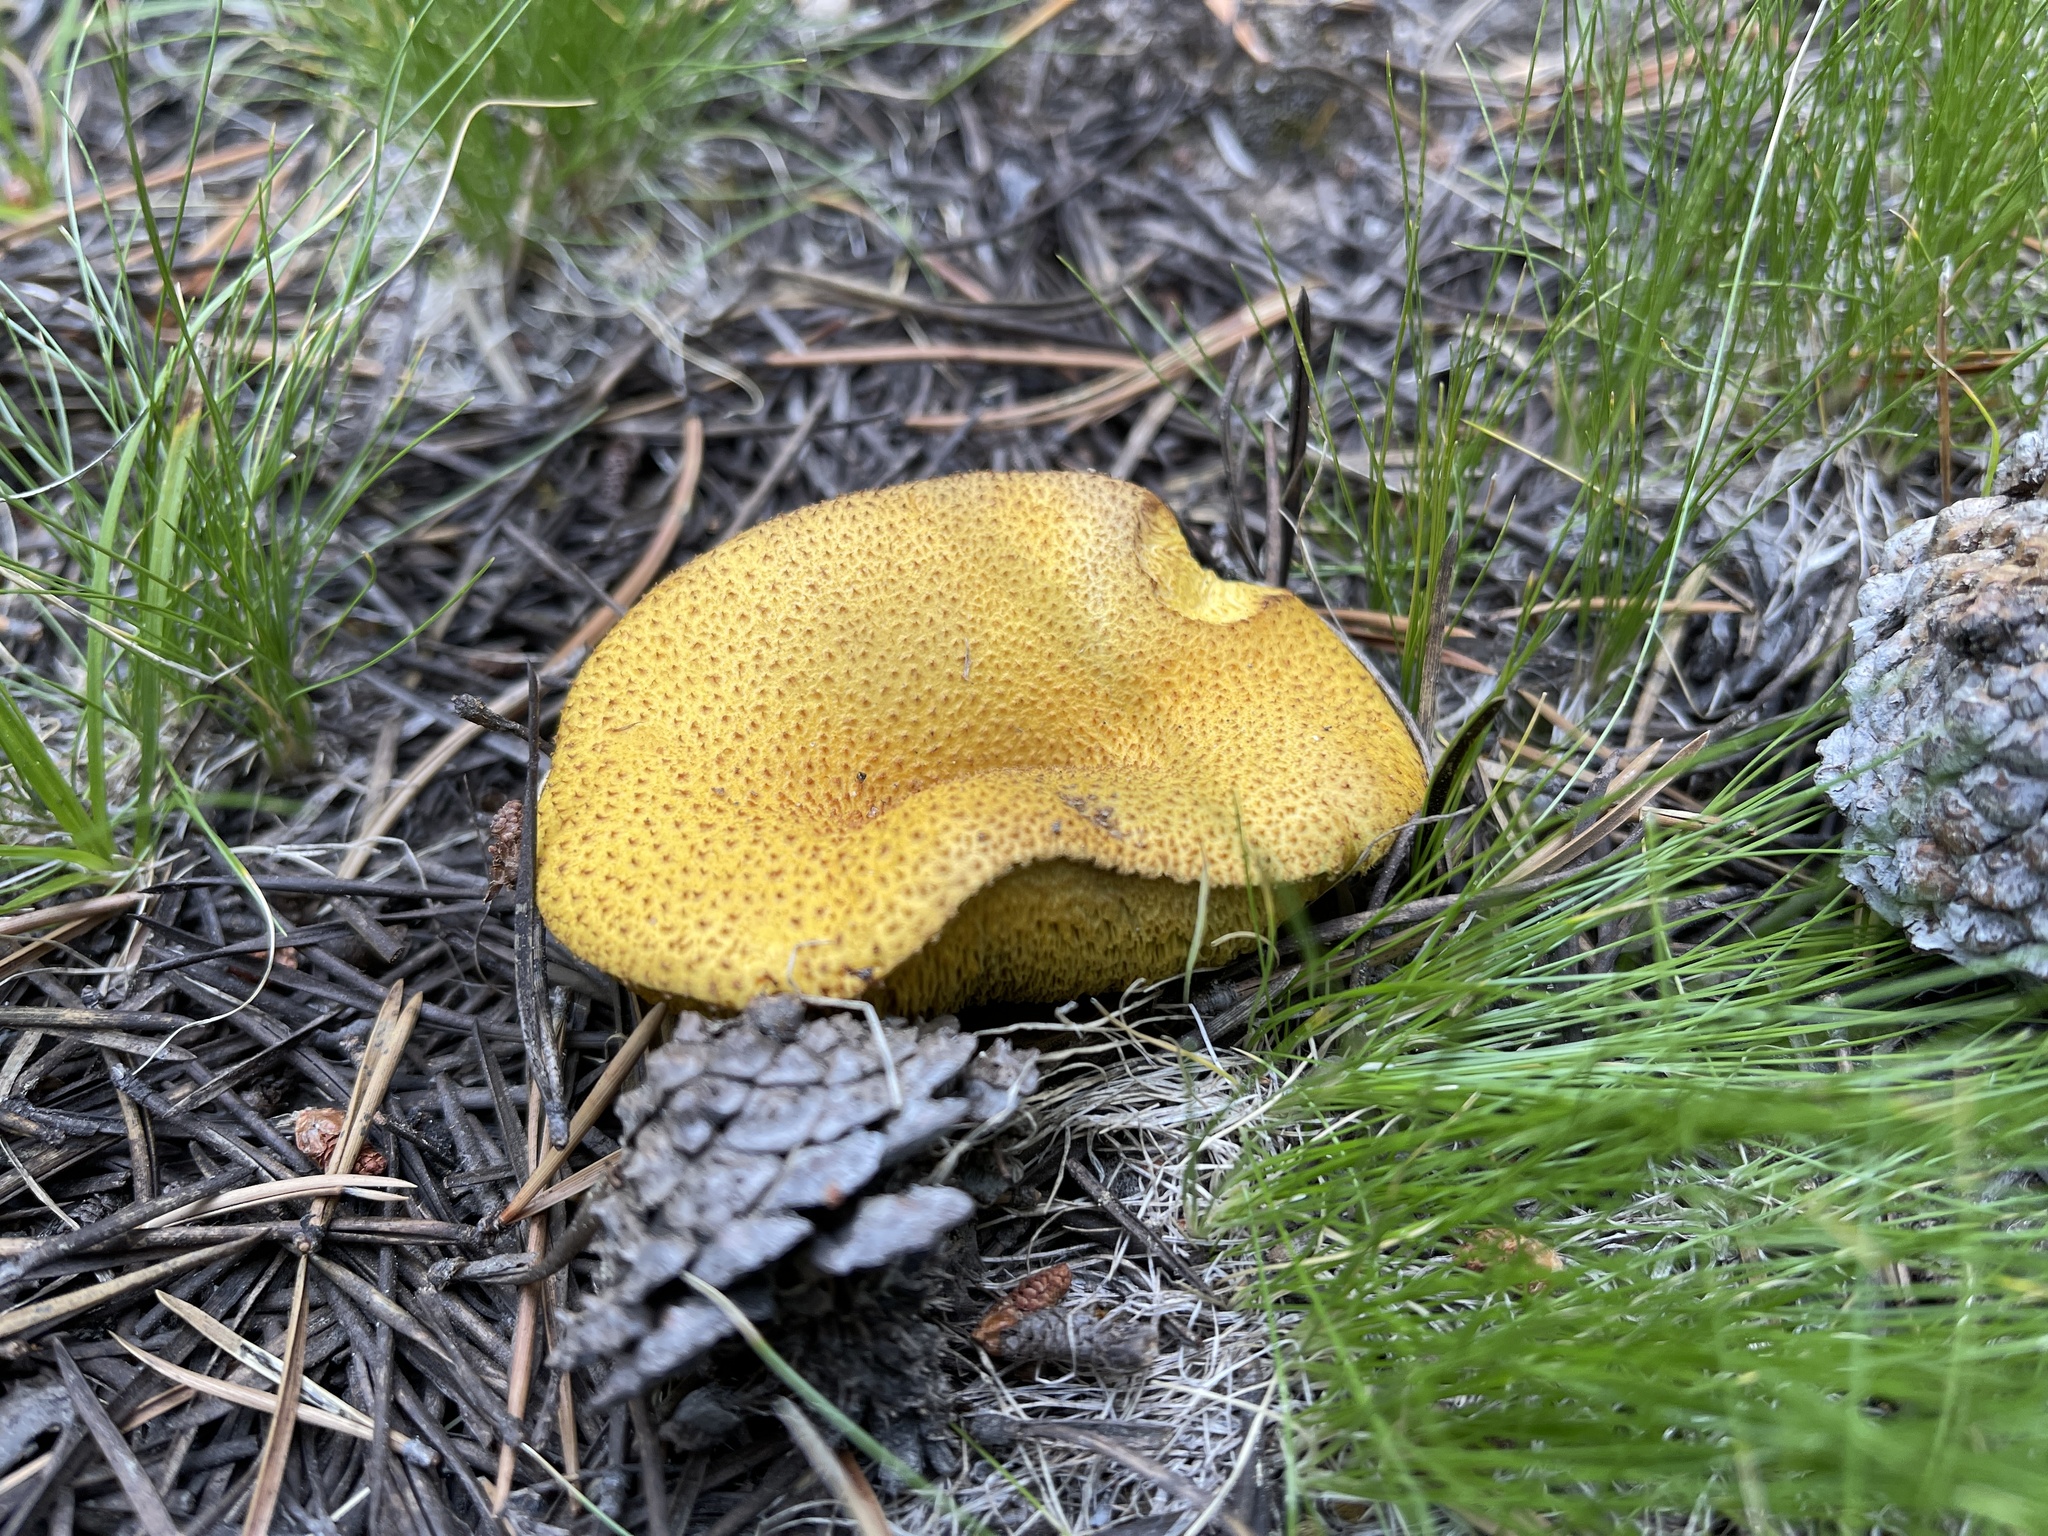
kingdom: Fungi
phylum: Basidiomycota
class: Agaricomycetes
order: Boletales
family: Suillaceae
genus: Suillus
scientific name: Suillus tomentosus
